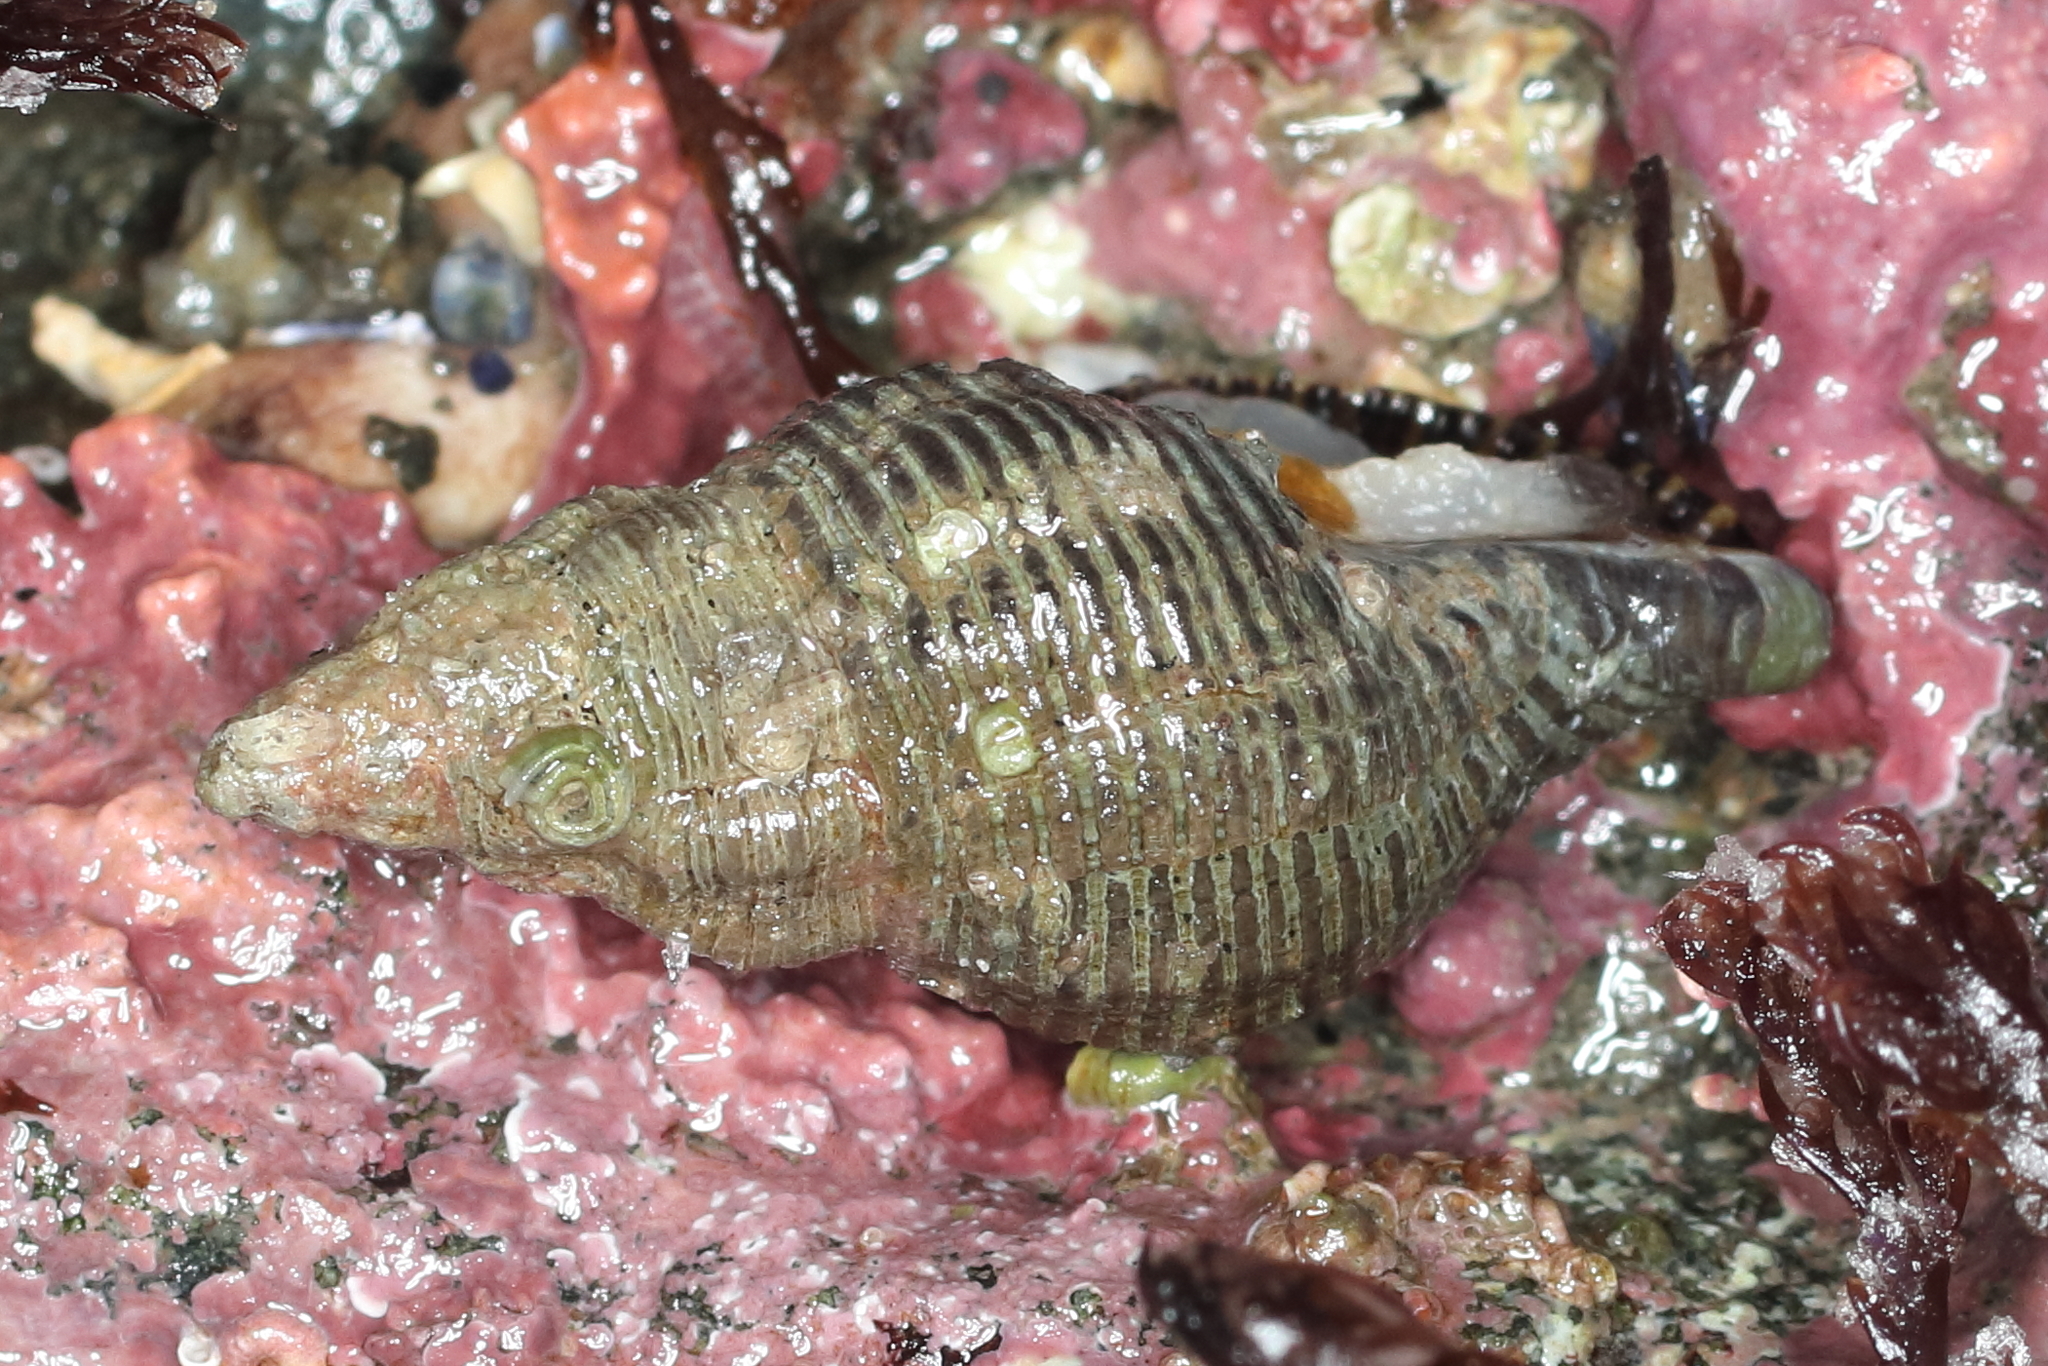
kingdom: Animalia
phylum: Mollusca
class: Gastropoda
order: Neogastropoda
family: Tudiclidae
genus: Lirabuccinum
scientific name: Lirabuccinum dirum
